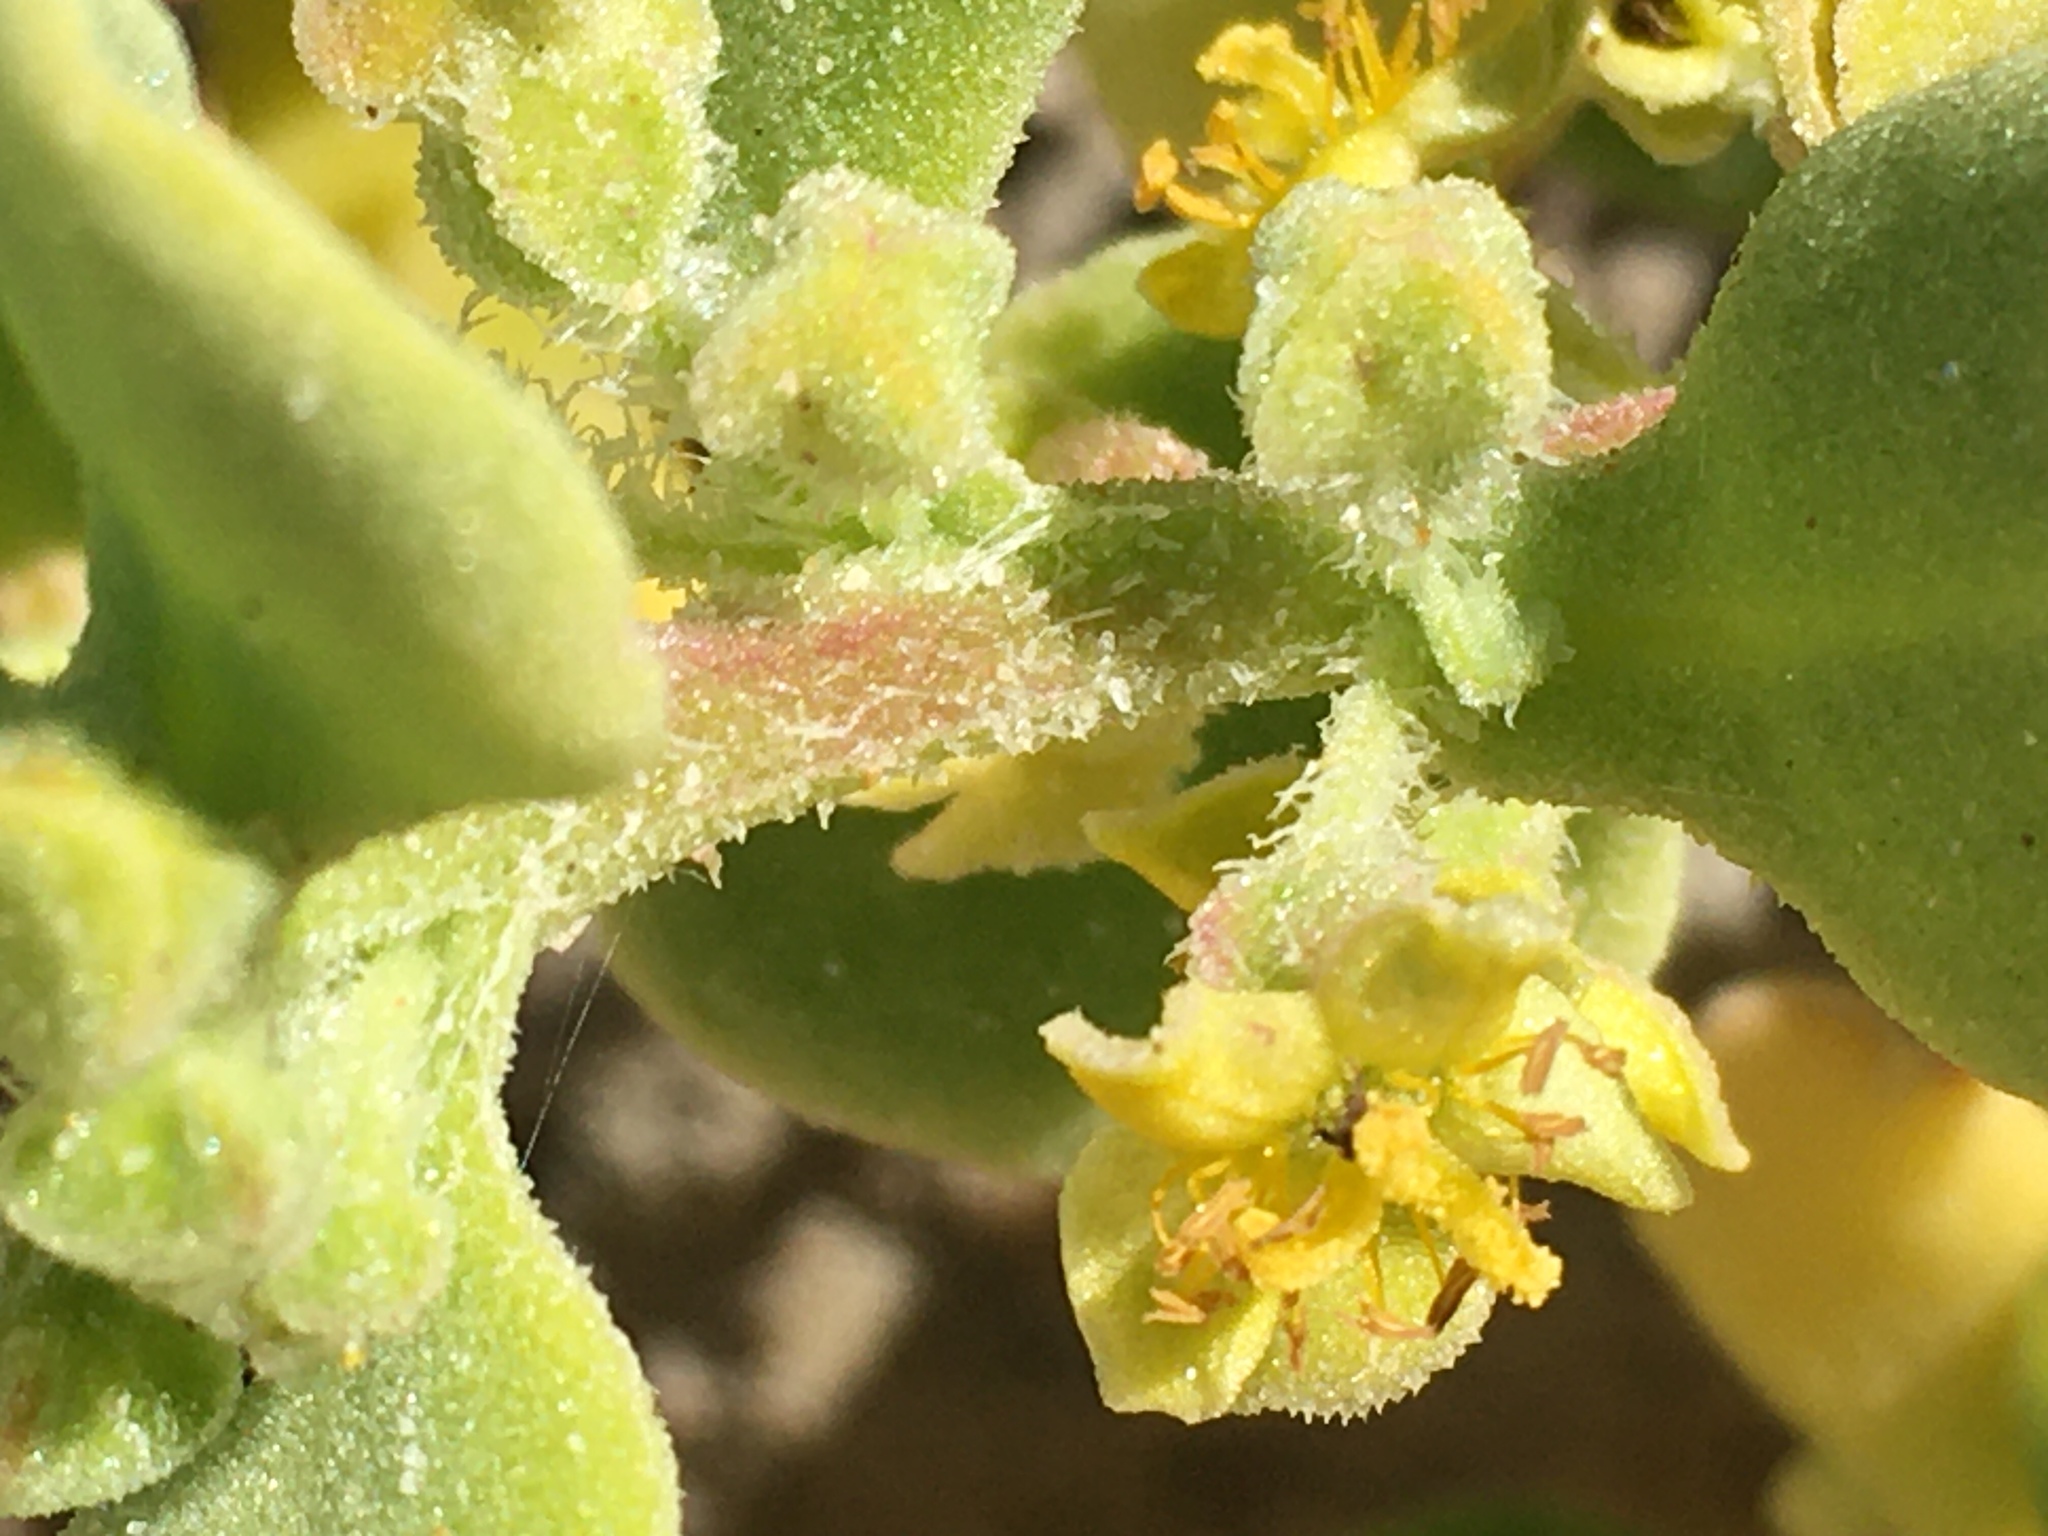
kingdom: Plantae
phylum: Tracheophyta
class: Magnoliopsida
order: Caryophyllales
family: Aizoaceae
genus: Tetragonia
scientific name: Tetragonia decumbens
